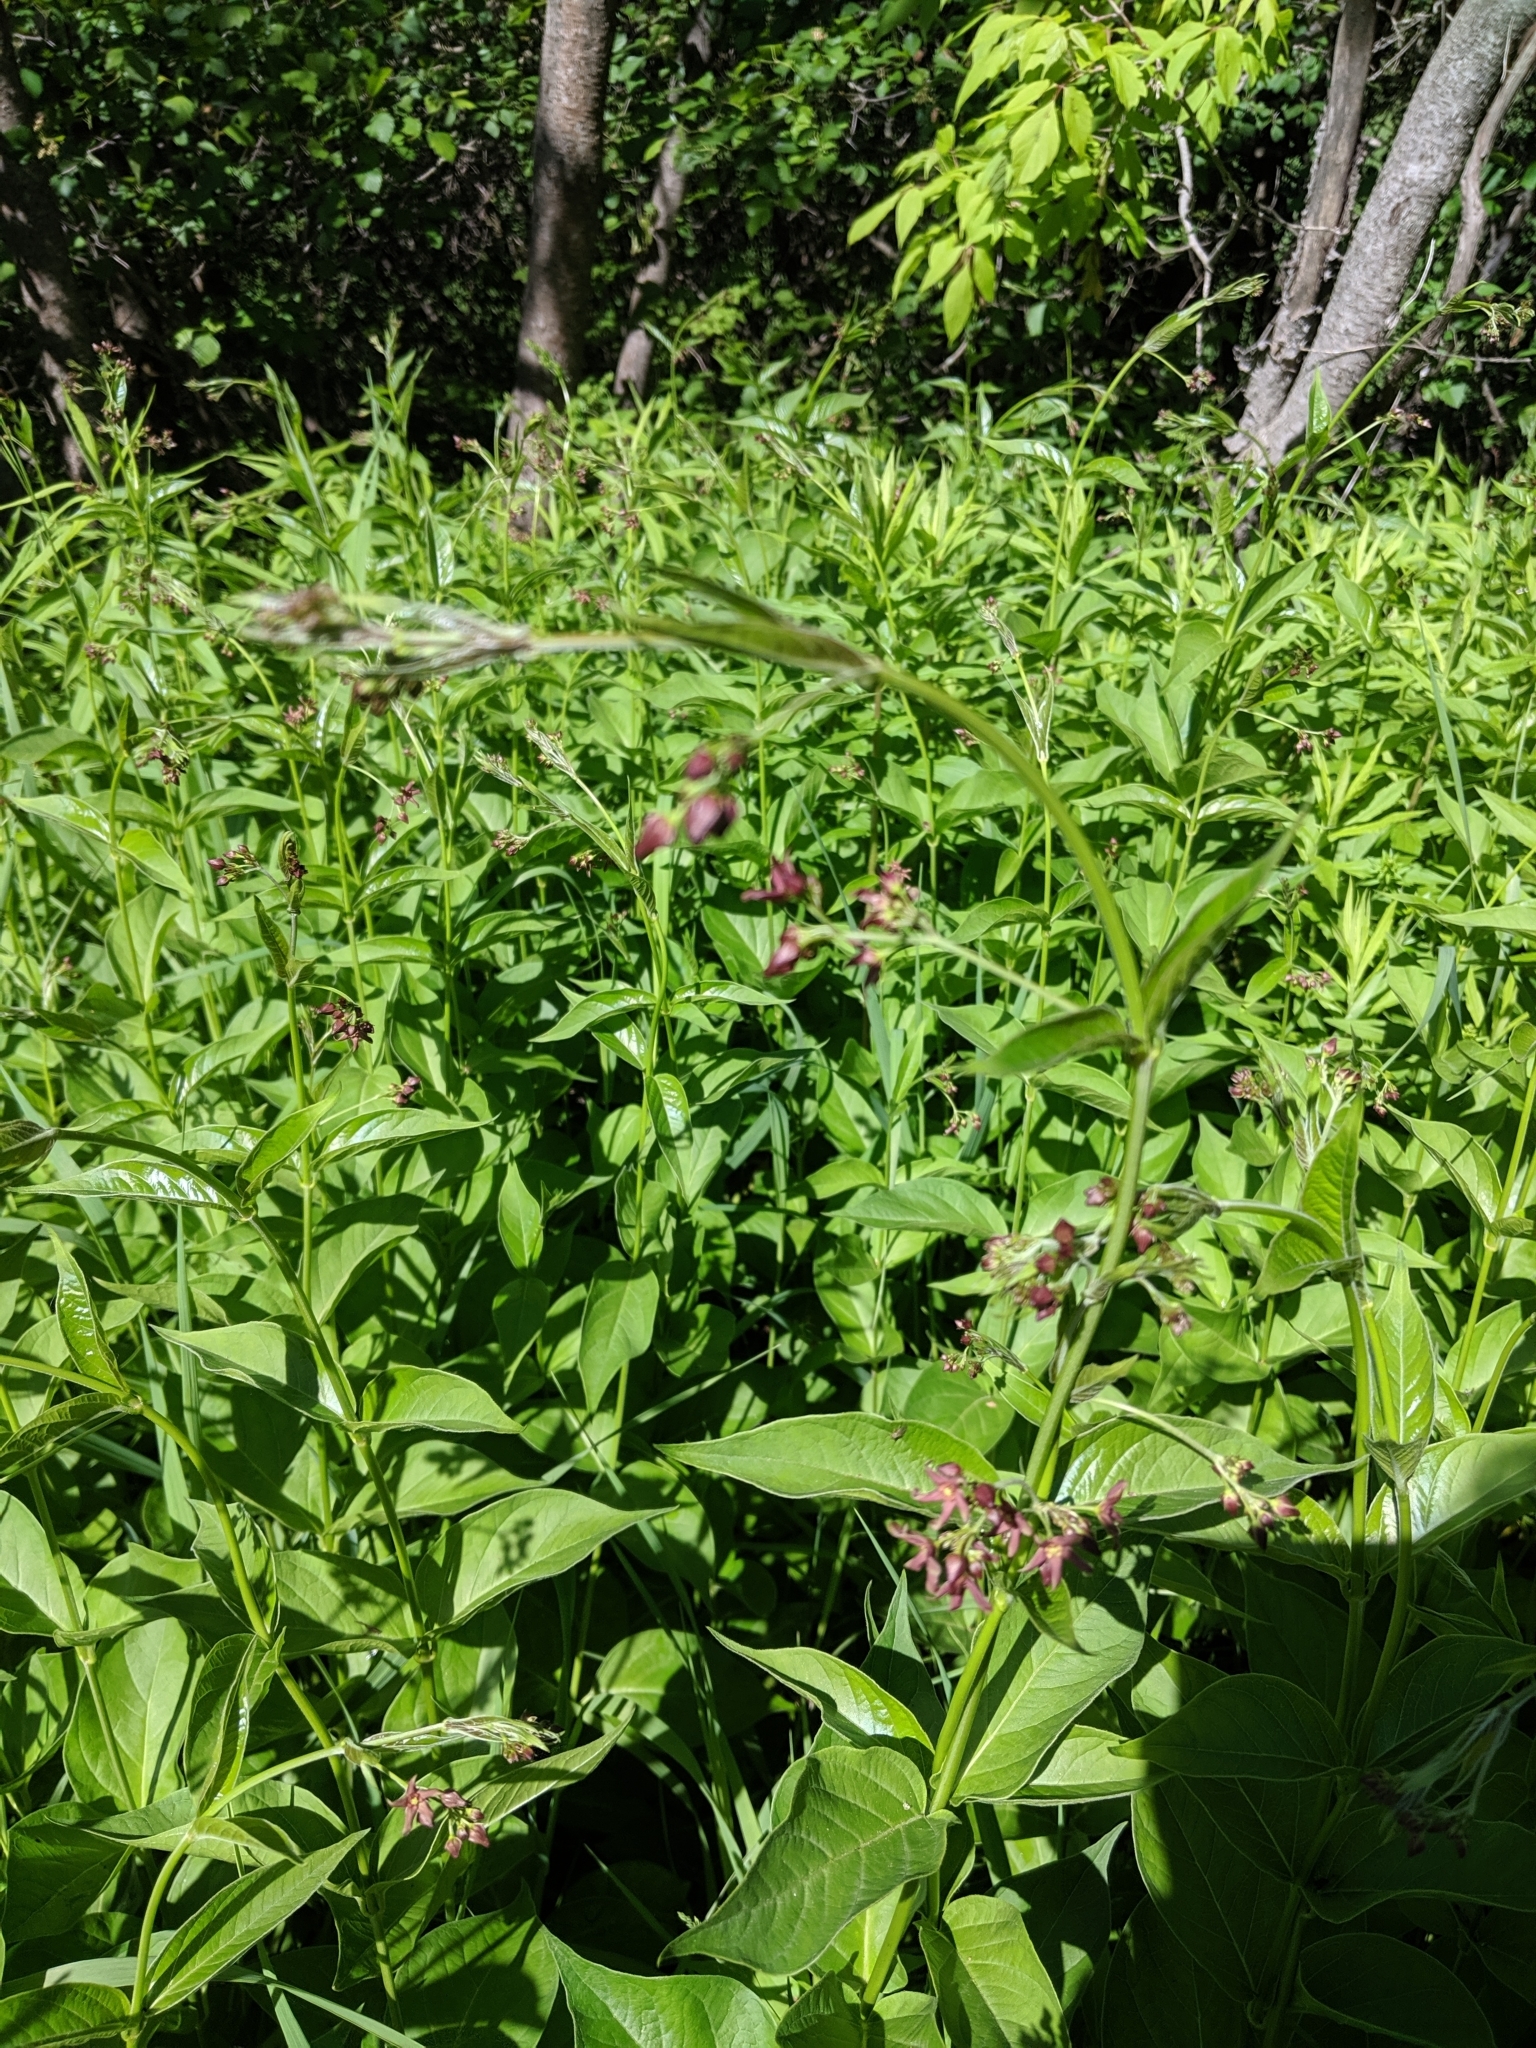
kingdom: Plantae
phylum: Tracheophyta
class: Magnoliopsida
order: Gentianales
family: Apocynaceae
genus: Vincetoxicum
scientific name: Vincetoxicum rossicum
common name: Dog-strangling vine
